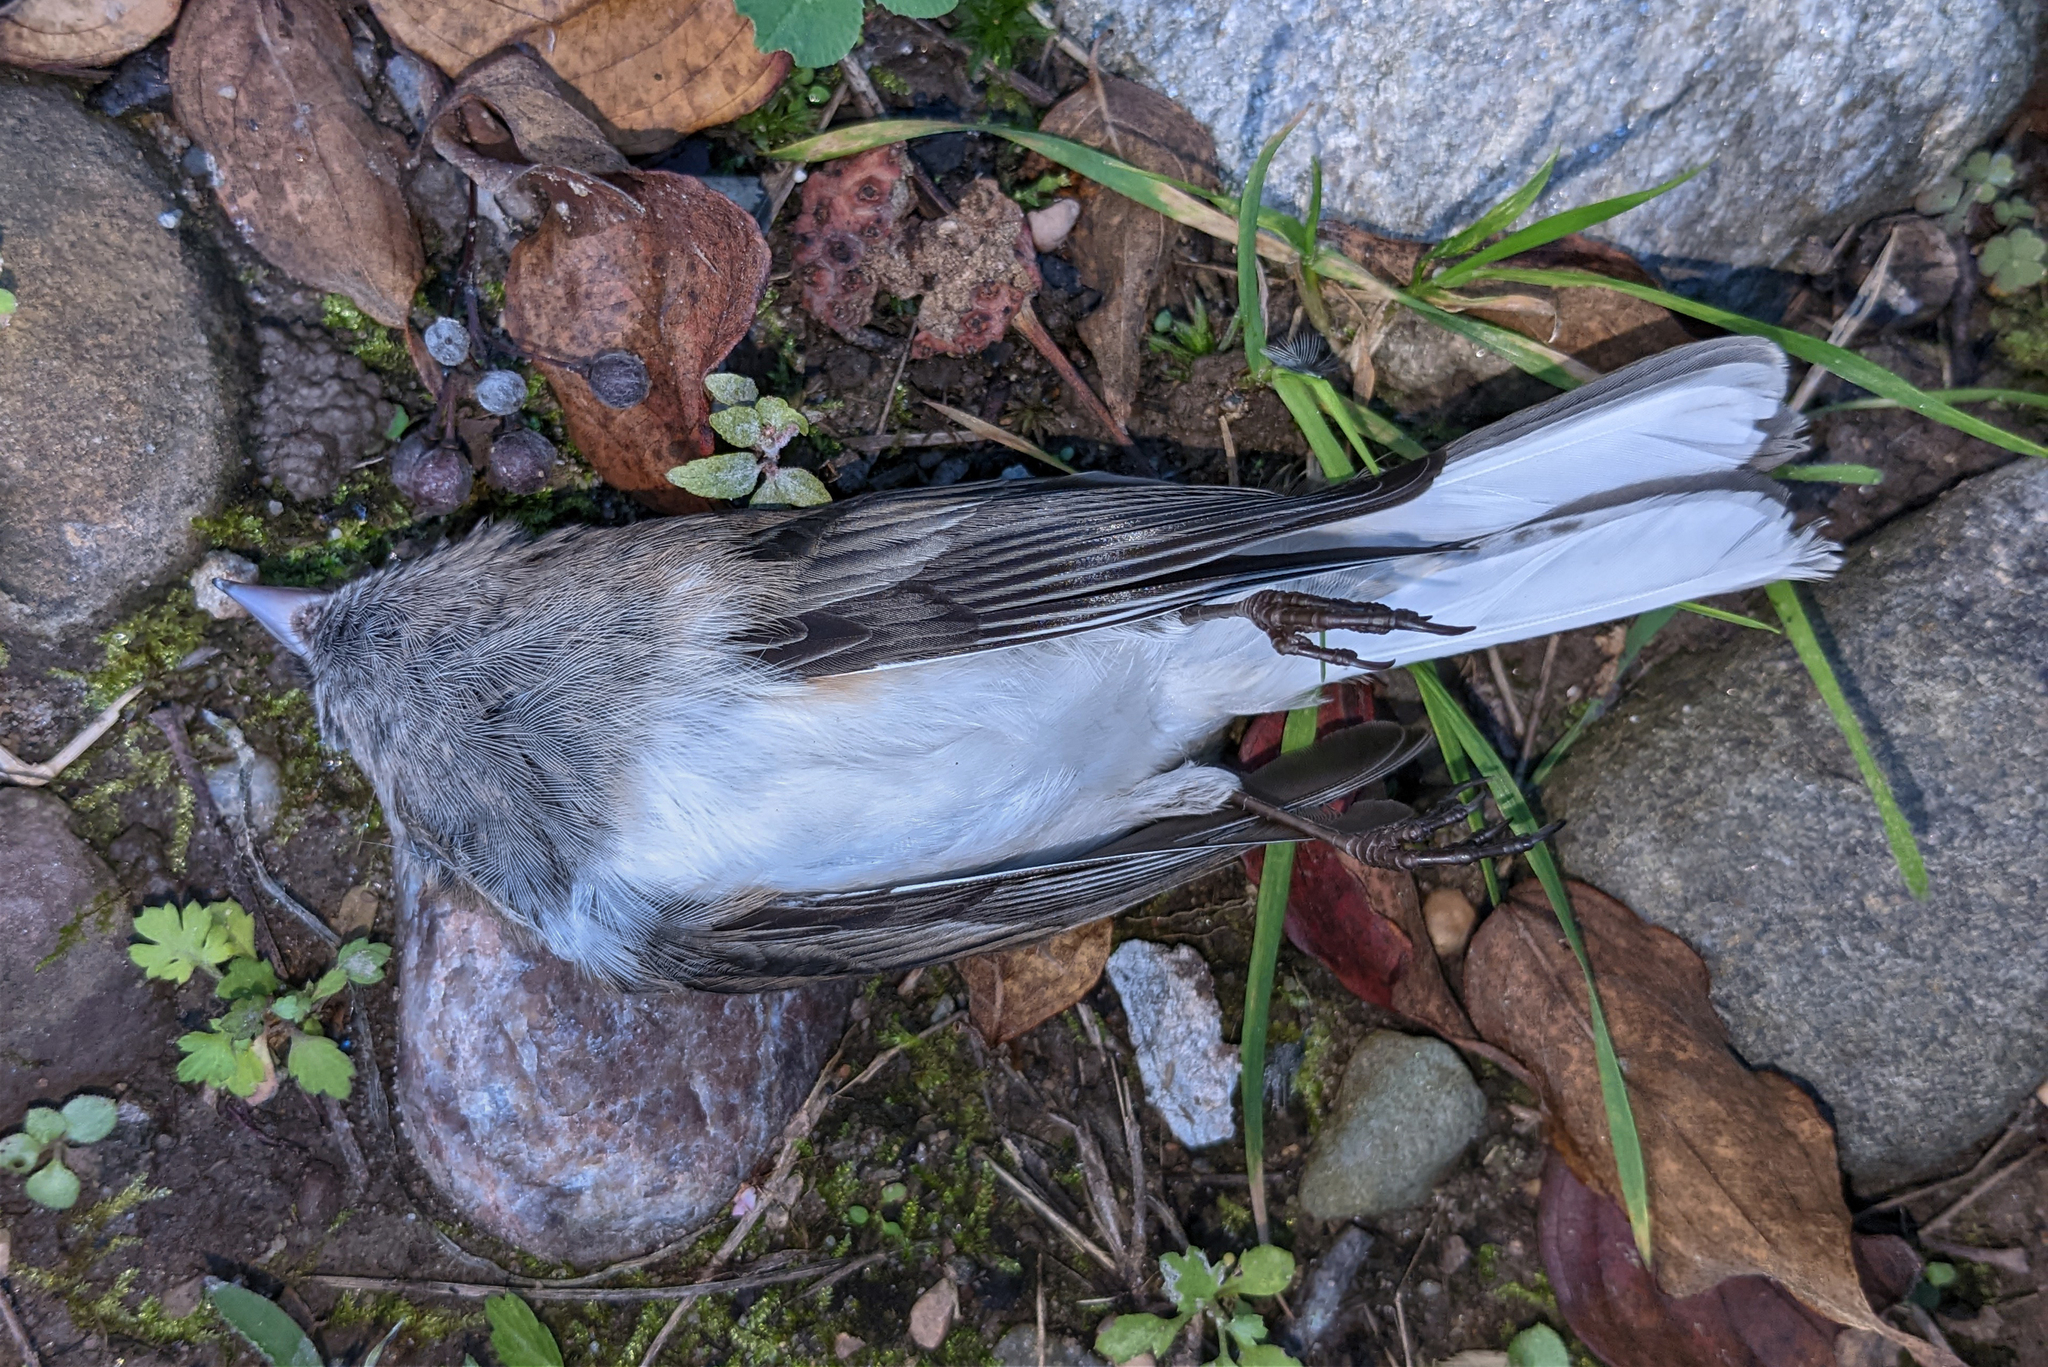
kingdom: Animalia
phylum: Chordata
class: Aves
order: Passeriformes
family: Passerellidae
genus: Junco
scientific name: Junco hyemalis
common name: Dark-eyed junco
